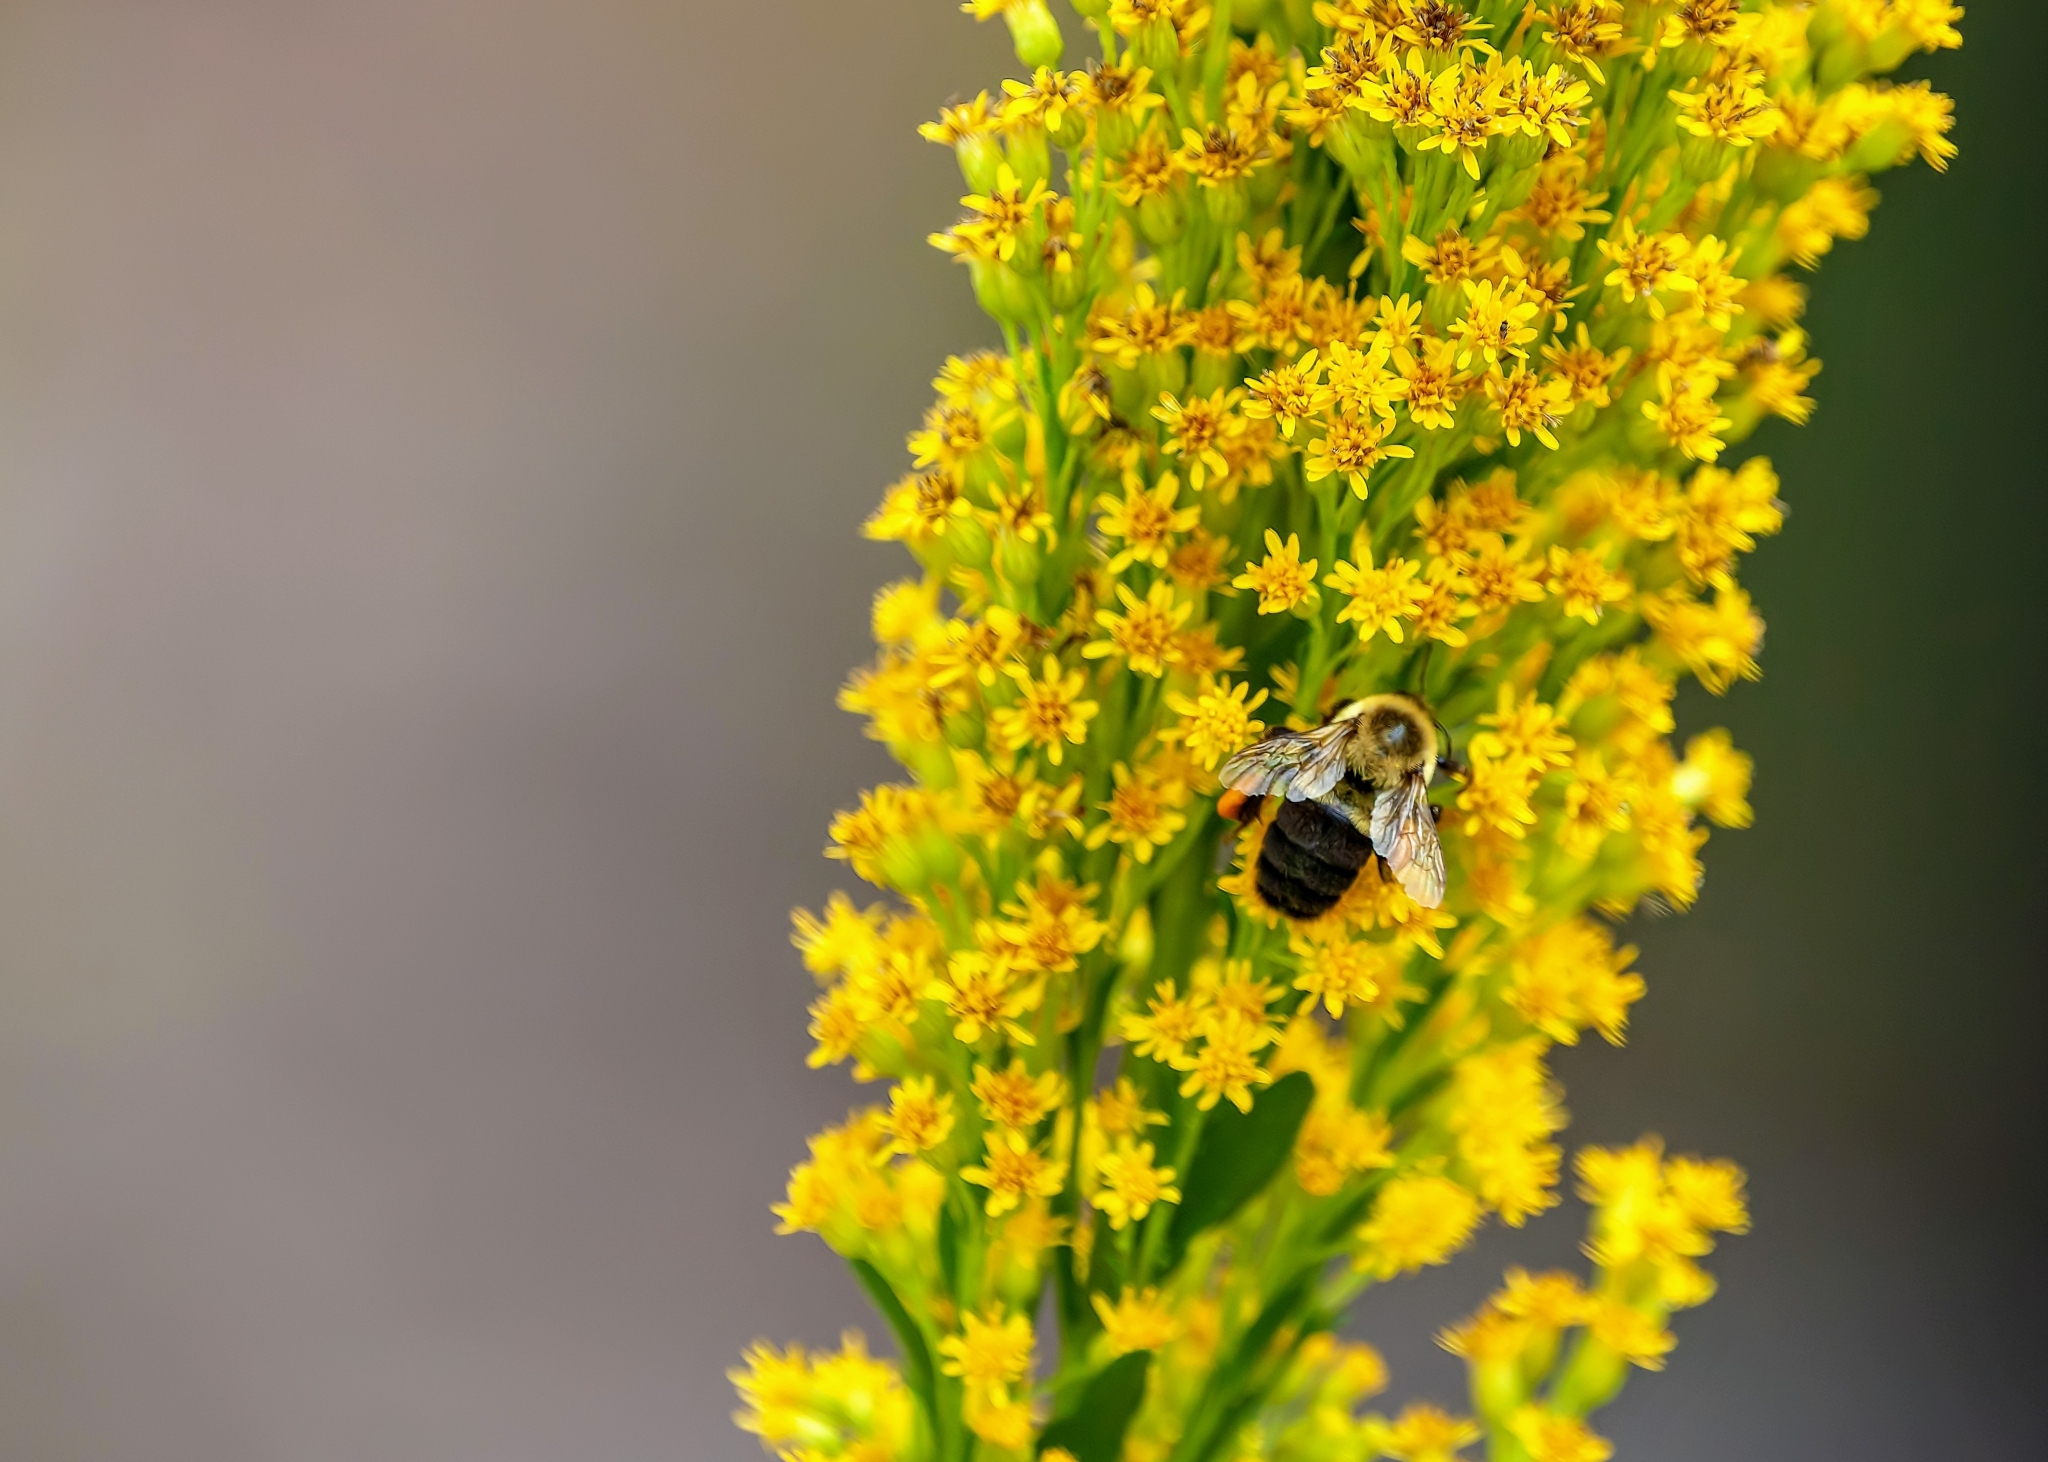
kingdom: Animalia
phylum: Arthropoda
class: Insecta
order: Hymenoptera
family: Apidae
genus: Bombus
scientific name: Bombus impatiens
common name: Common eastern bumble bee
